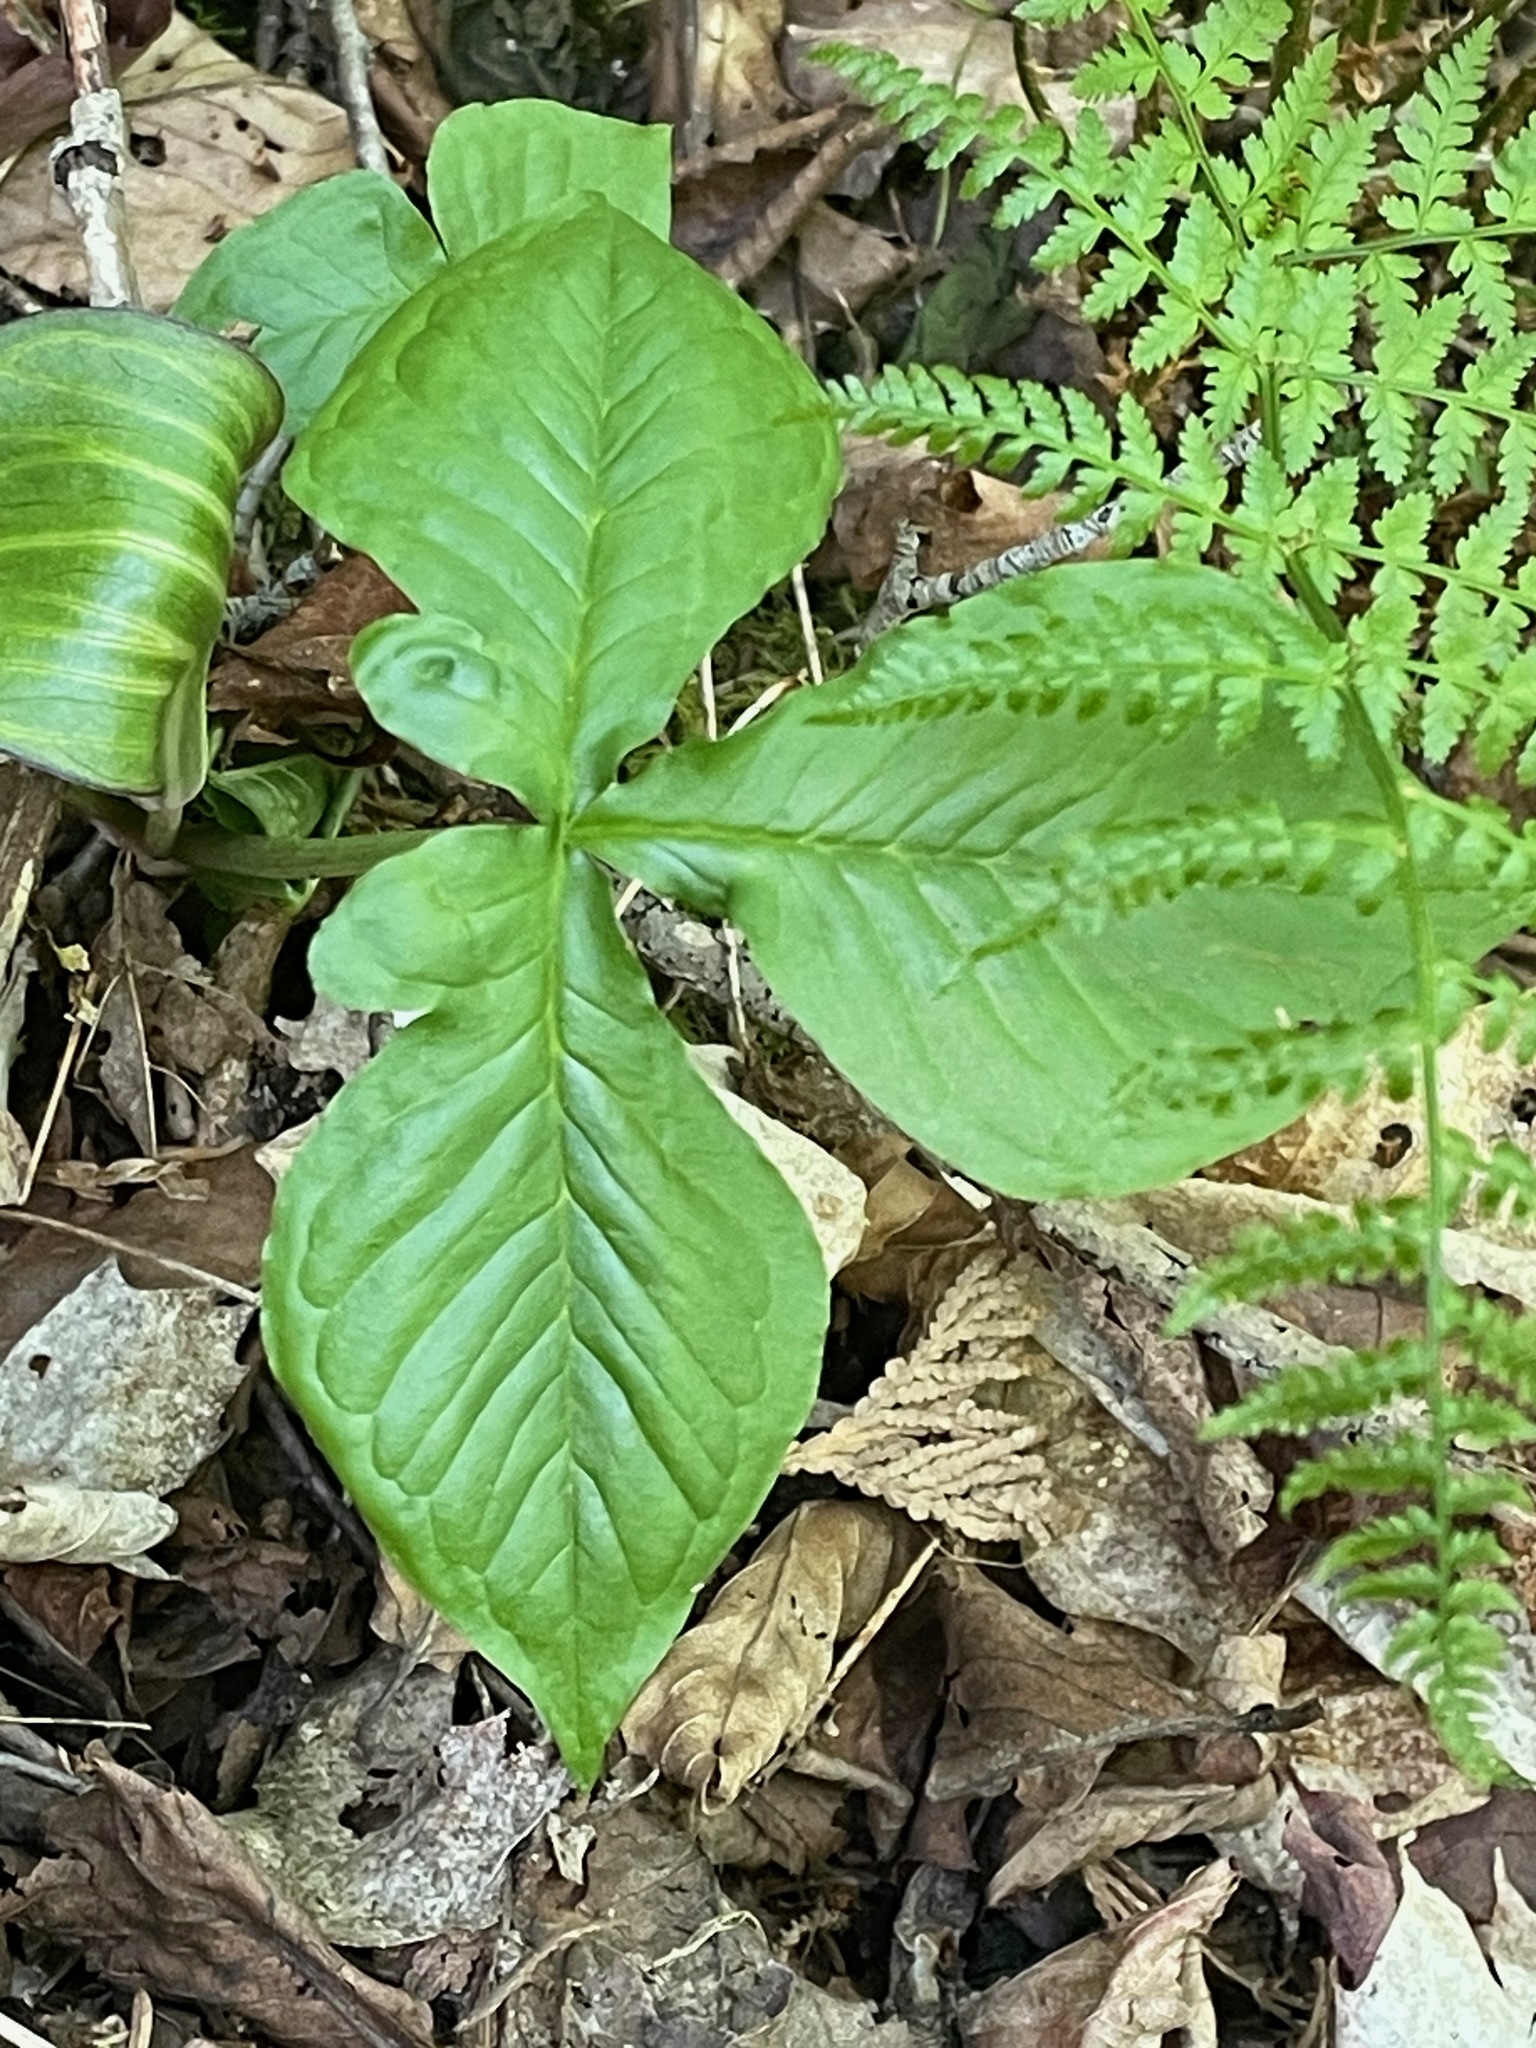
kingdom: Plantae
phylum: Tracheophyta
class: Liliopsida
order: Alismatales
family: Araceae
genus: Arisaema
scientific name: Arisaema triphyllum
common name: Jack-in-the-pulpit
